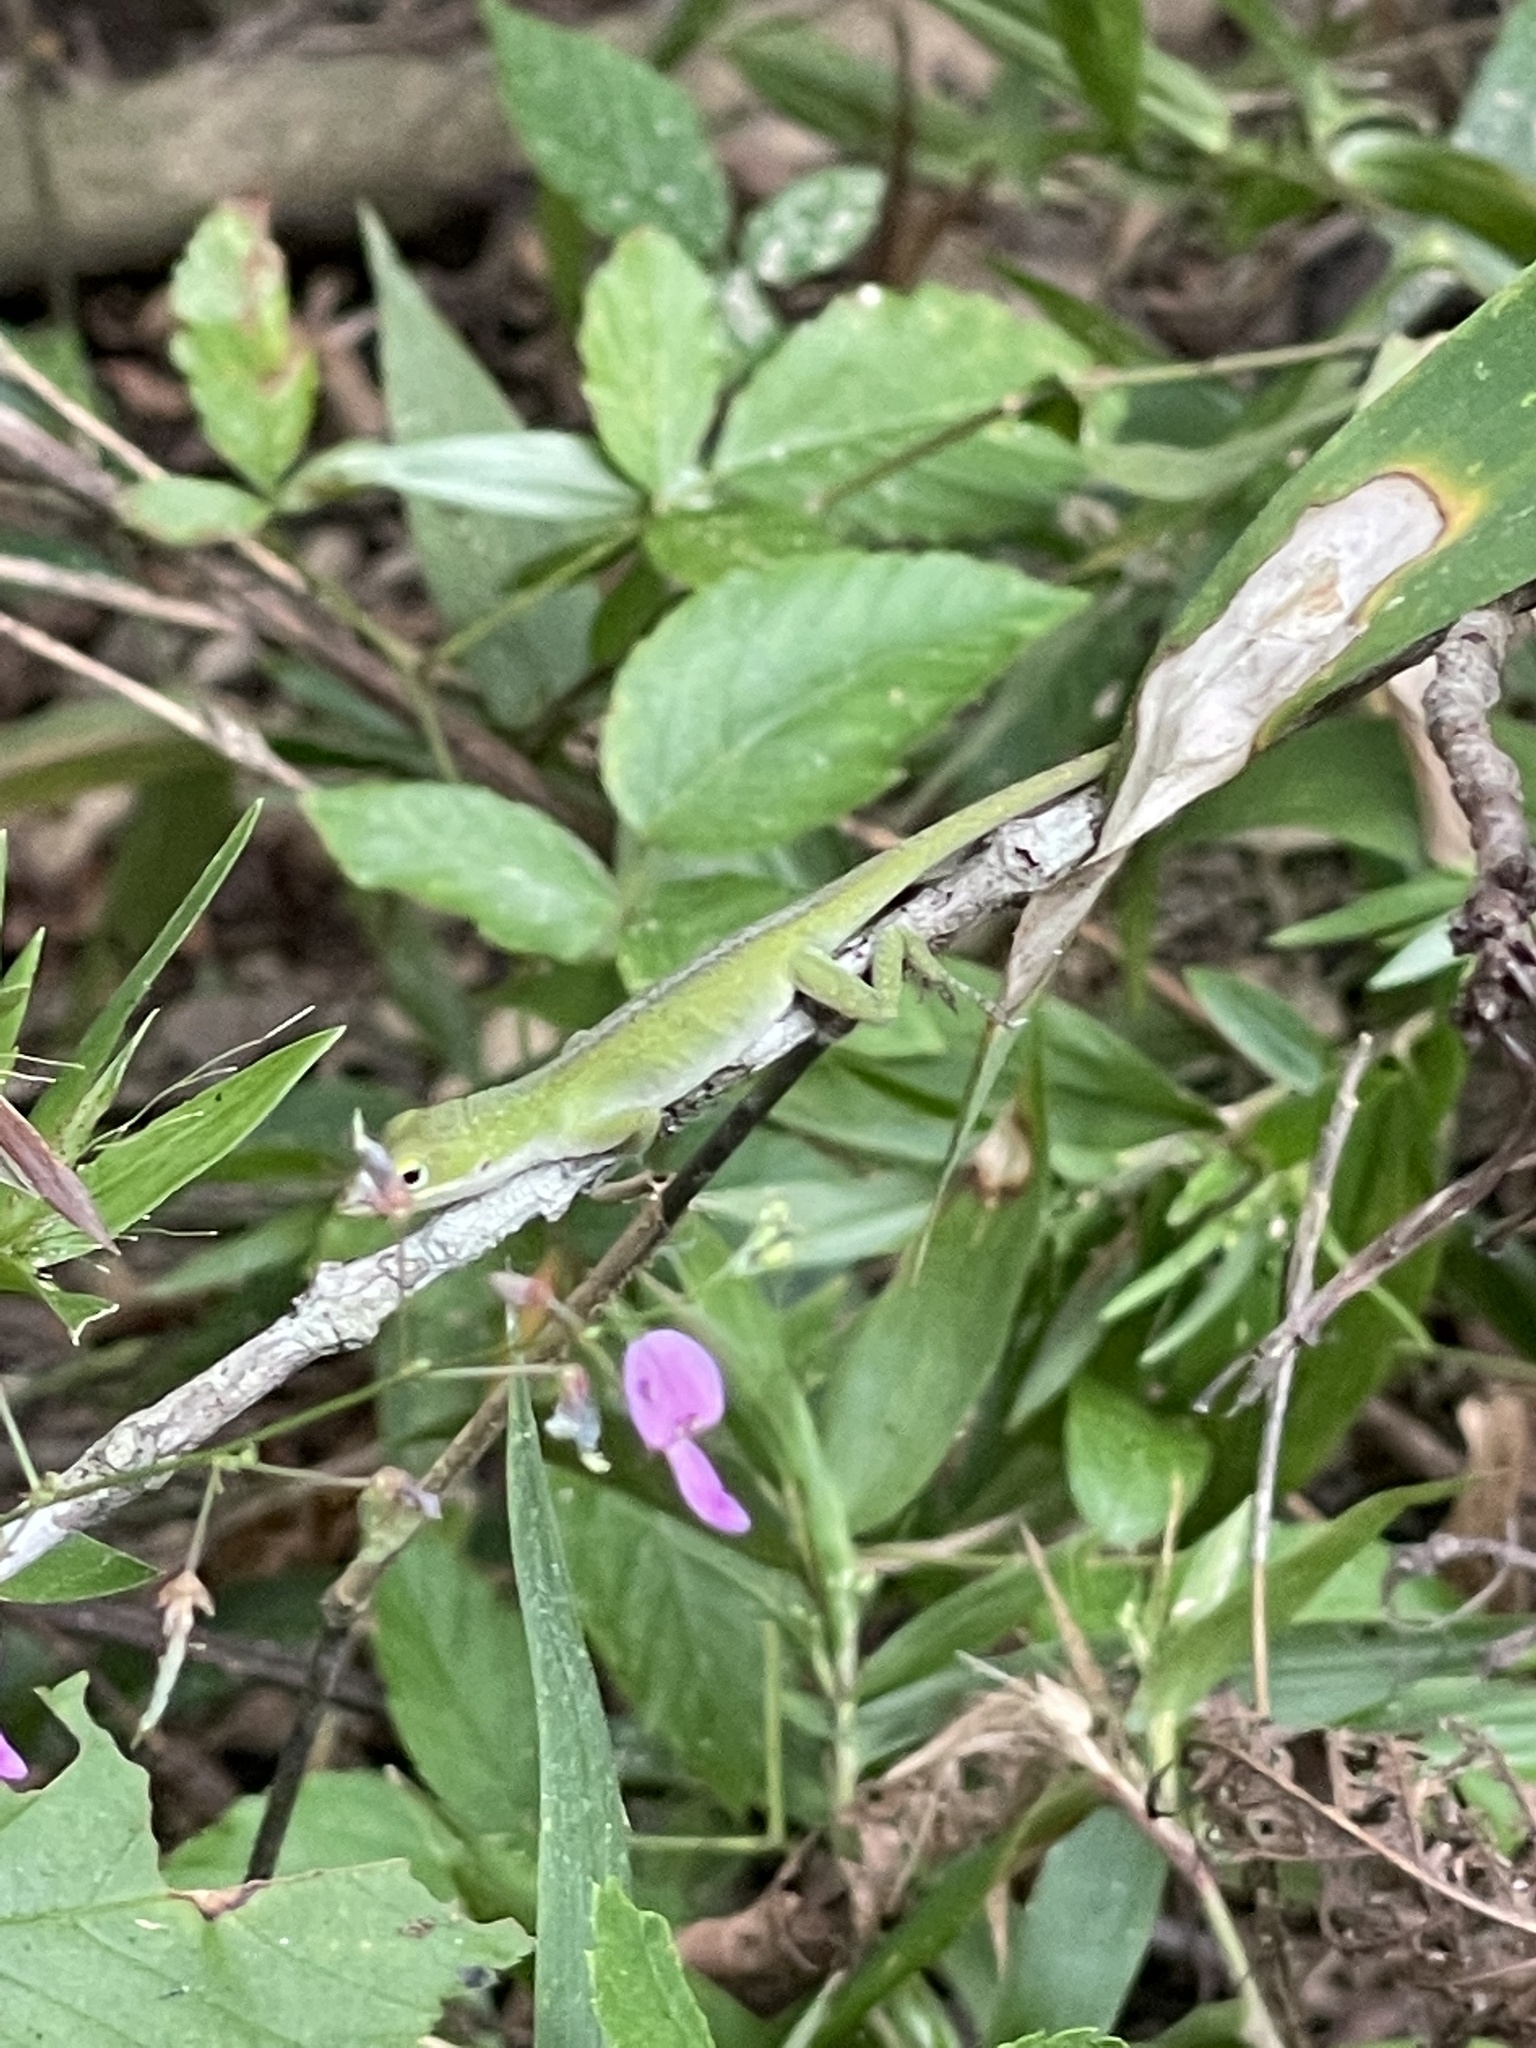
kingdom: Animalia
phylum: Chordata
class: Squamata
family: Dactyloidae
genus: Anolis
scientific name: Anolis carolinensis
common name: Green anole
